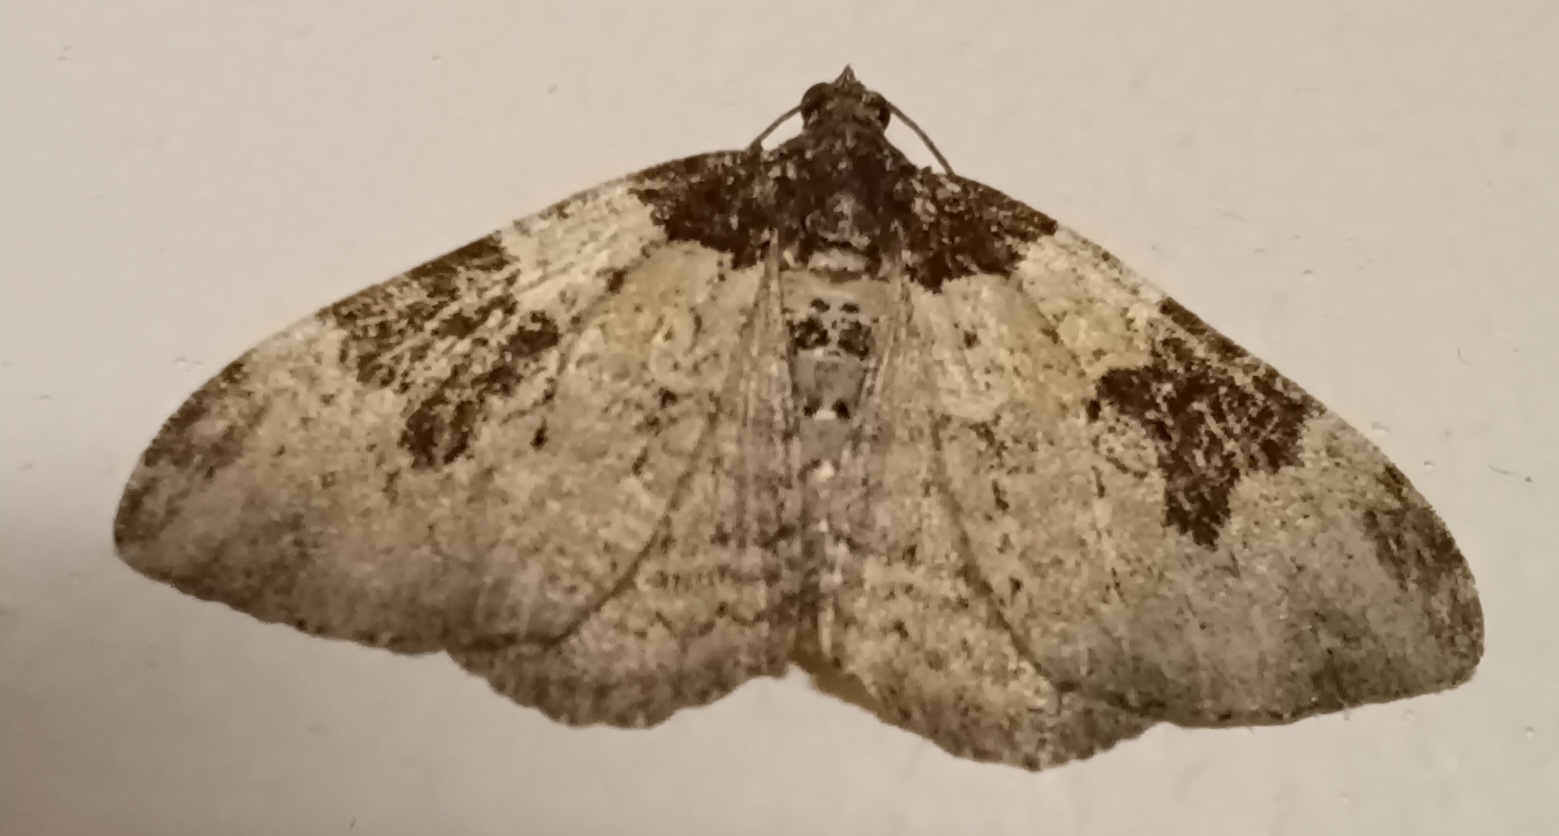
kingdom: Animalia
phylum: Arthropoda
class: Insecta
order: Lepidoptera
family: Geometridae
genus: Xanthorhoe
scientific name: Xanthorhoe fluctuata
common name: Garden carpet
